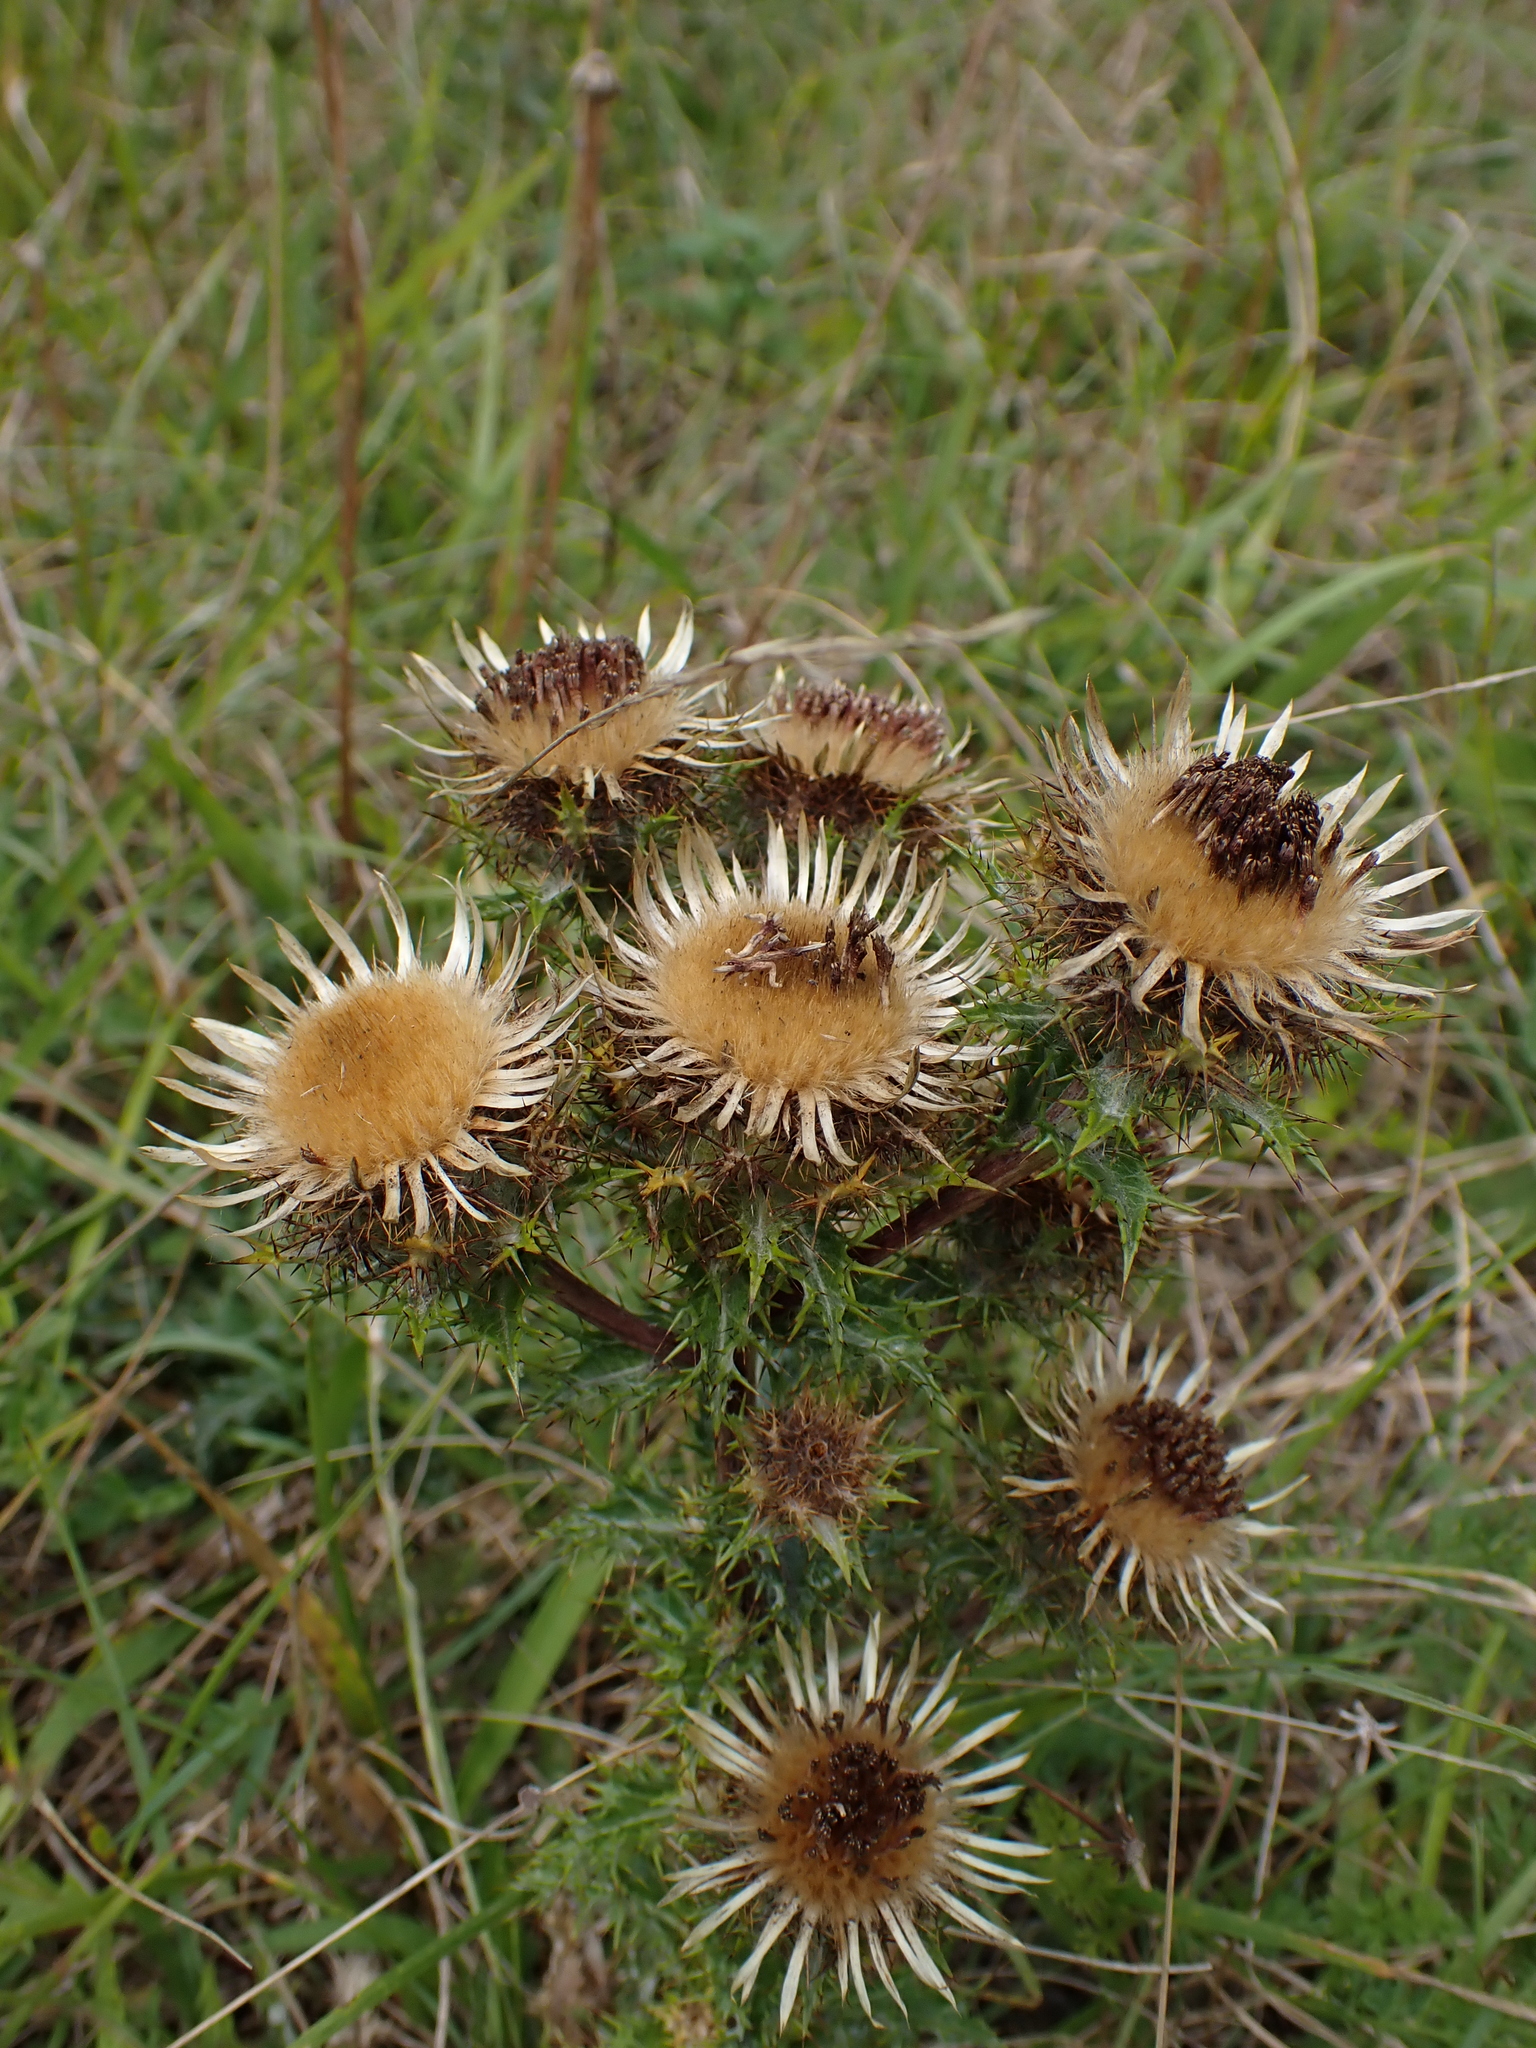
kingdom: Plantae
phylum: Tracheophyta
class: Magnoliopsida
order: Asterales
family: Asteraceae
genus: Carlina
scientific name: Carlina vulgaris
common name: Carline thistle
